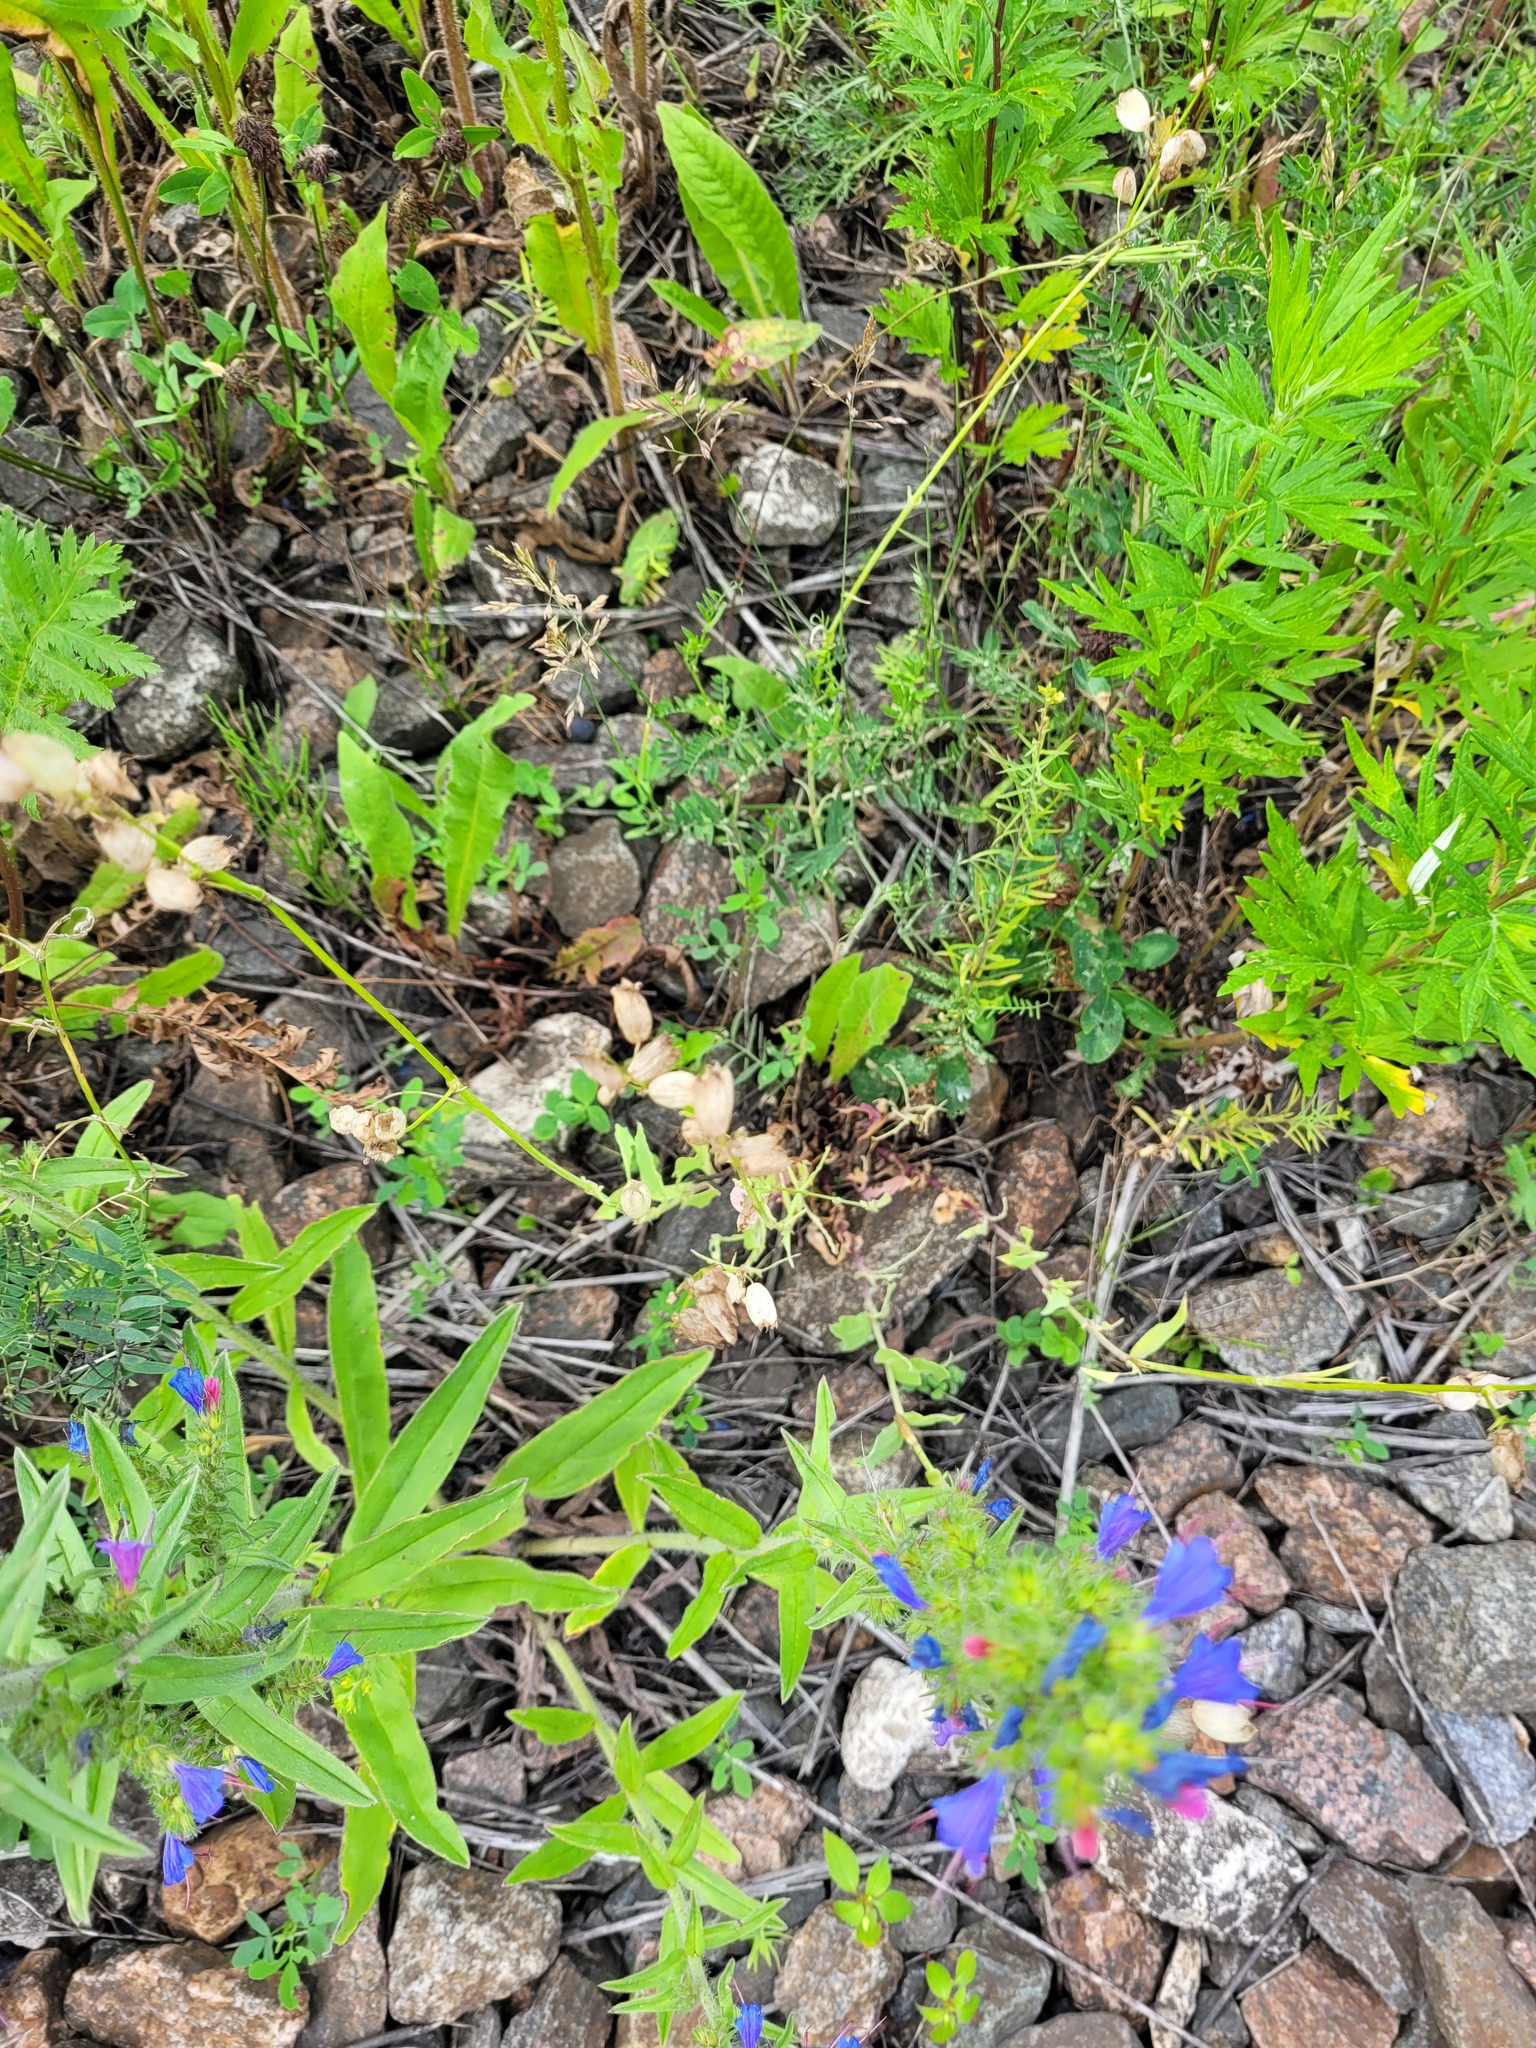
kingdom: Plantae
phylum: Tracheophyta
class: Magnoliopsida
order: Caryophyllales
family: Caryophyllaceae
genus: Silene
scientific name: Silene vulgaris
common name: Bladder campion
